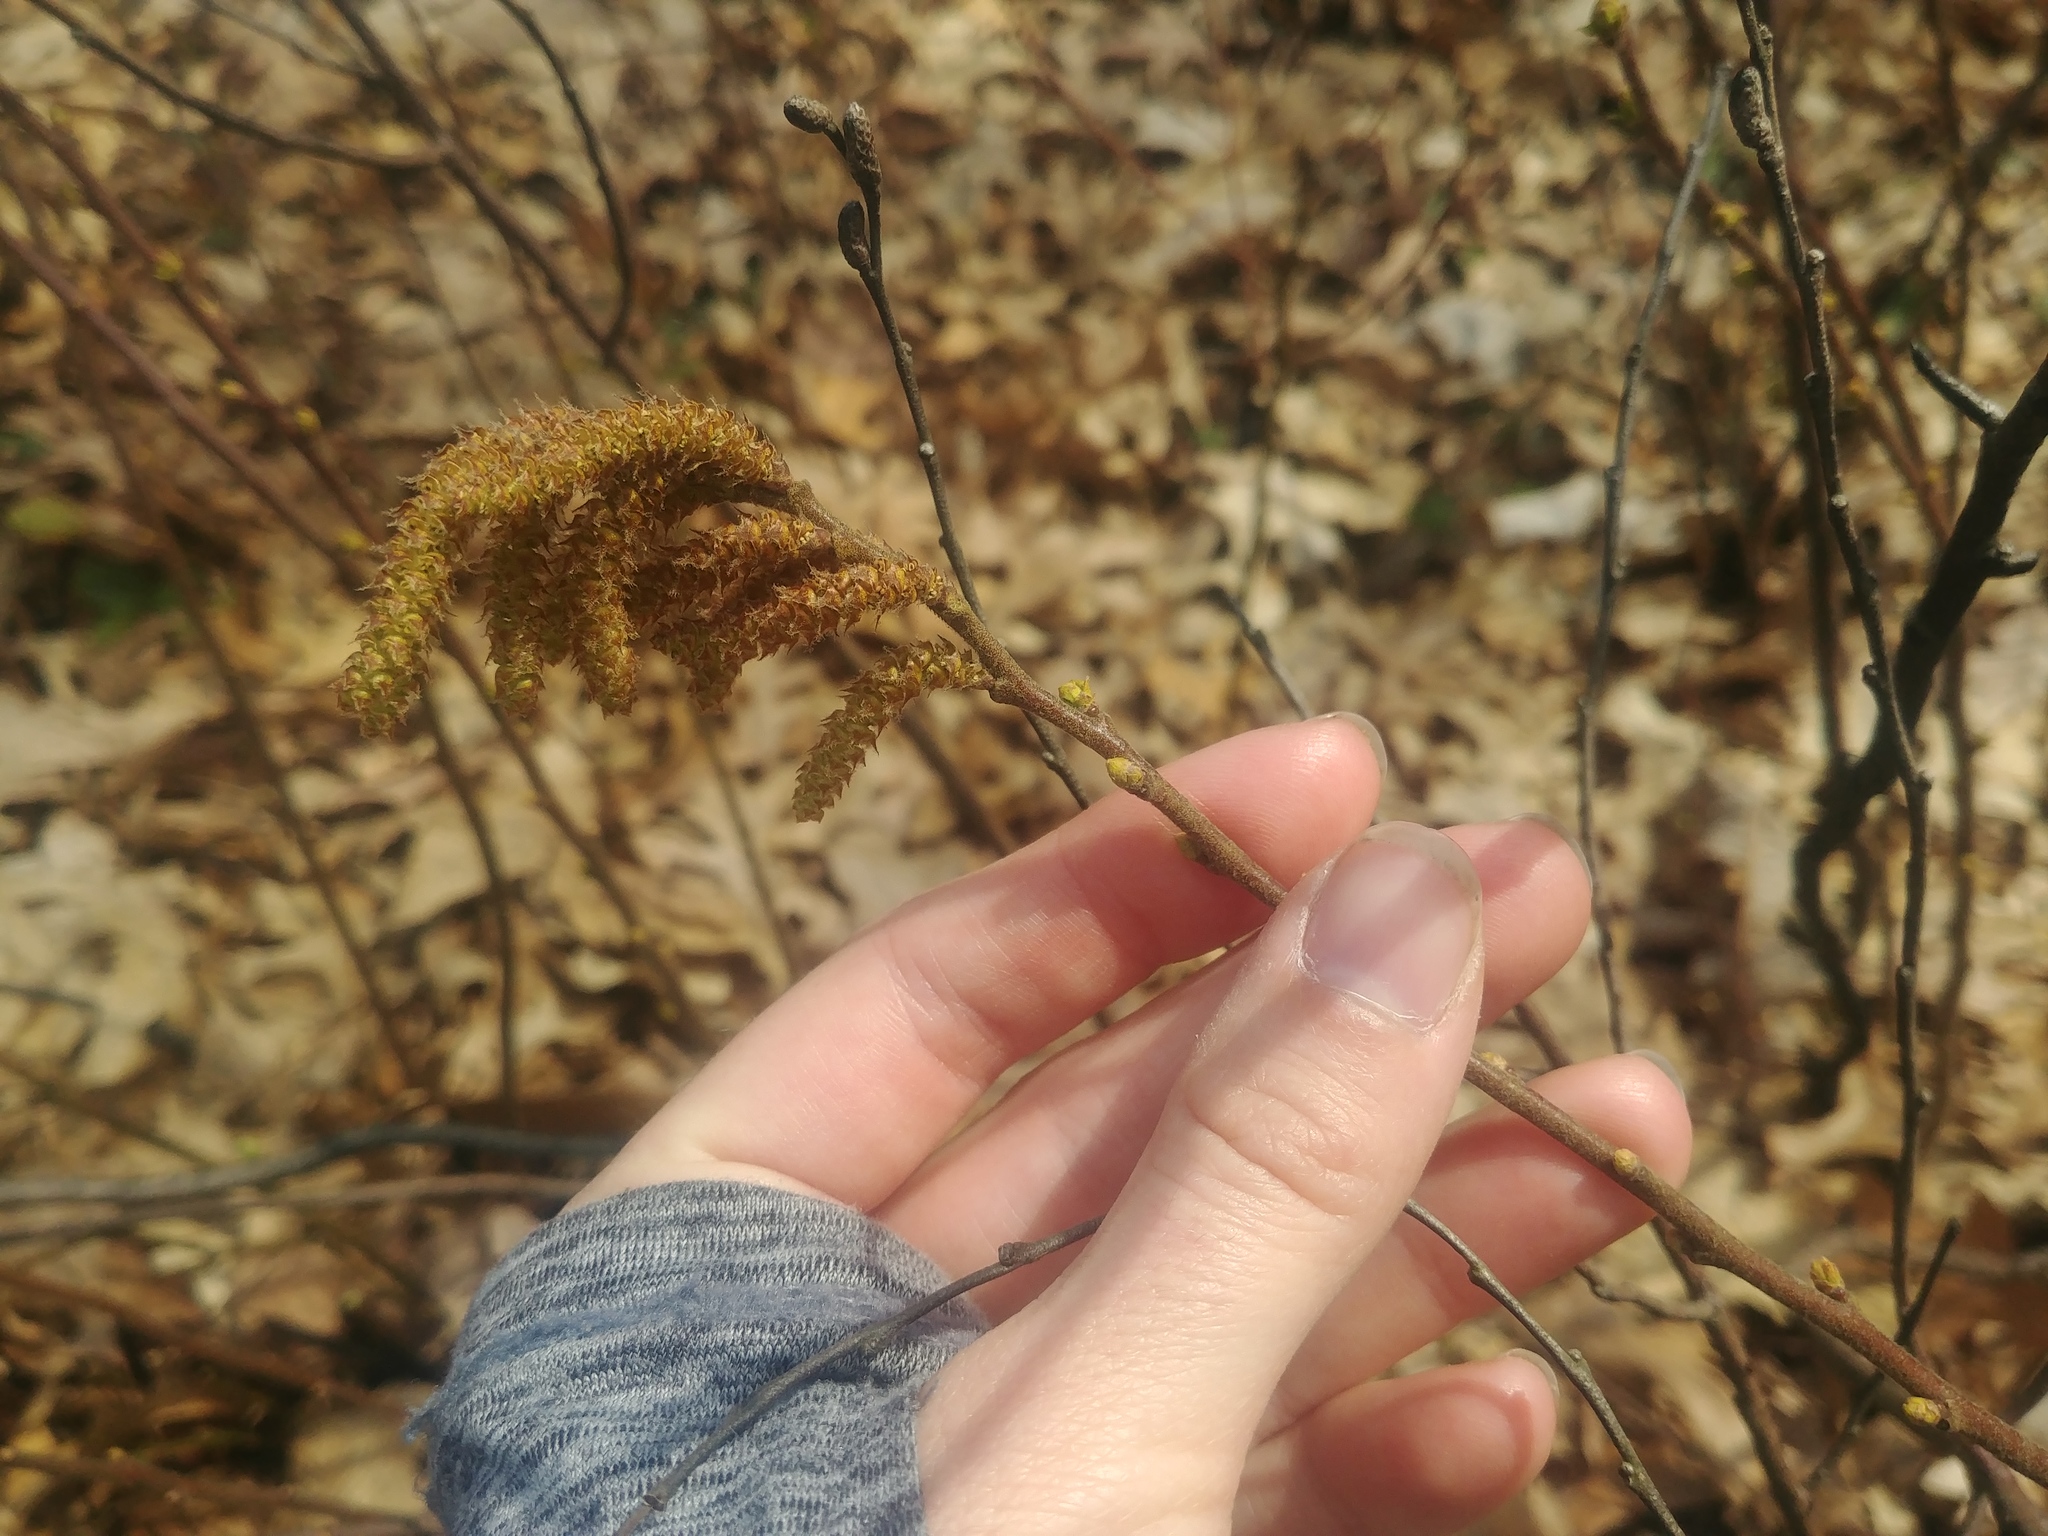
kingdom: Plantae
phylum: Tracheophyta
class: Magnoliopsida
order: Fagales
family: Myricaceae
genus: Comptonia
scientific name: Comptonia peregrina
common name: Sweet-fern
